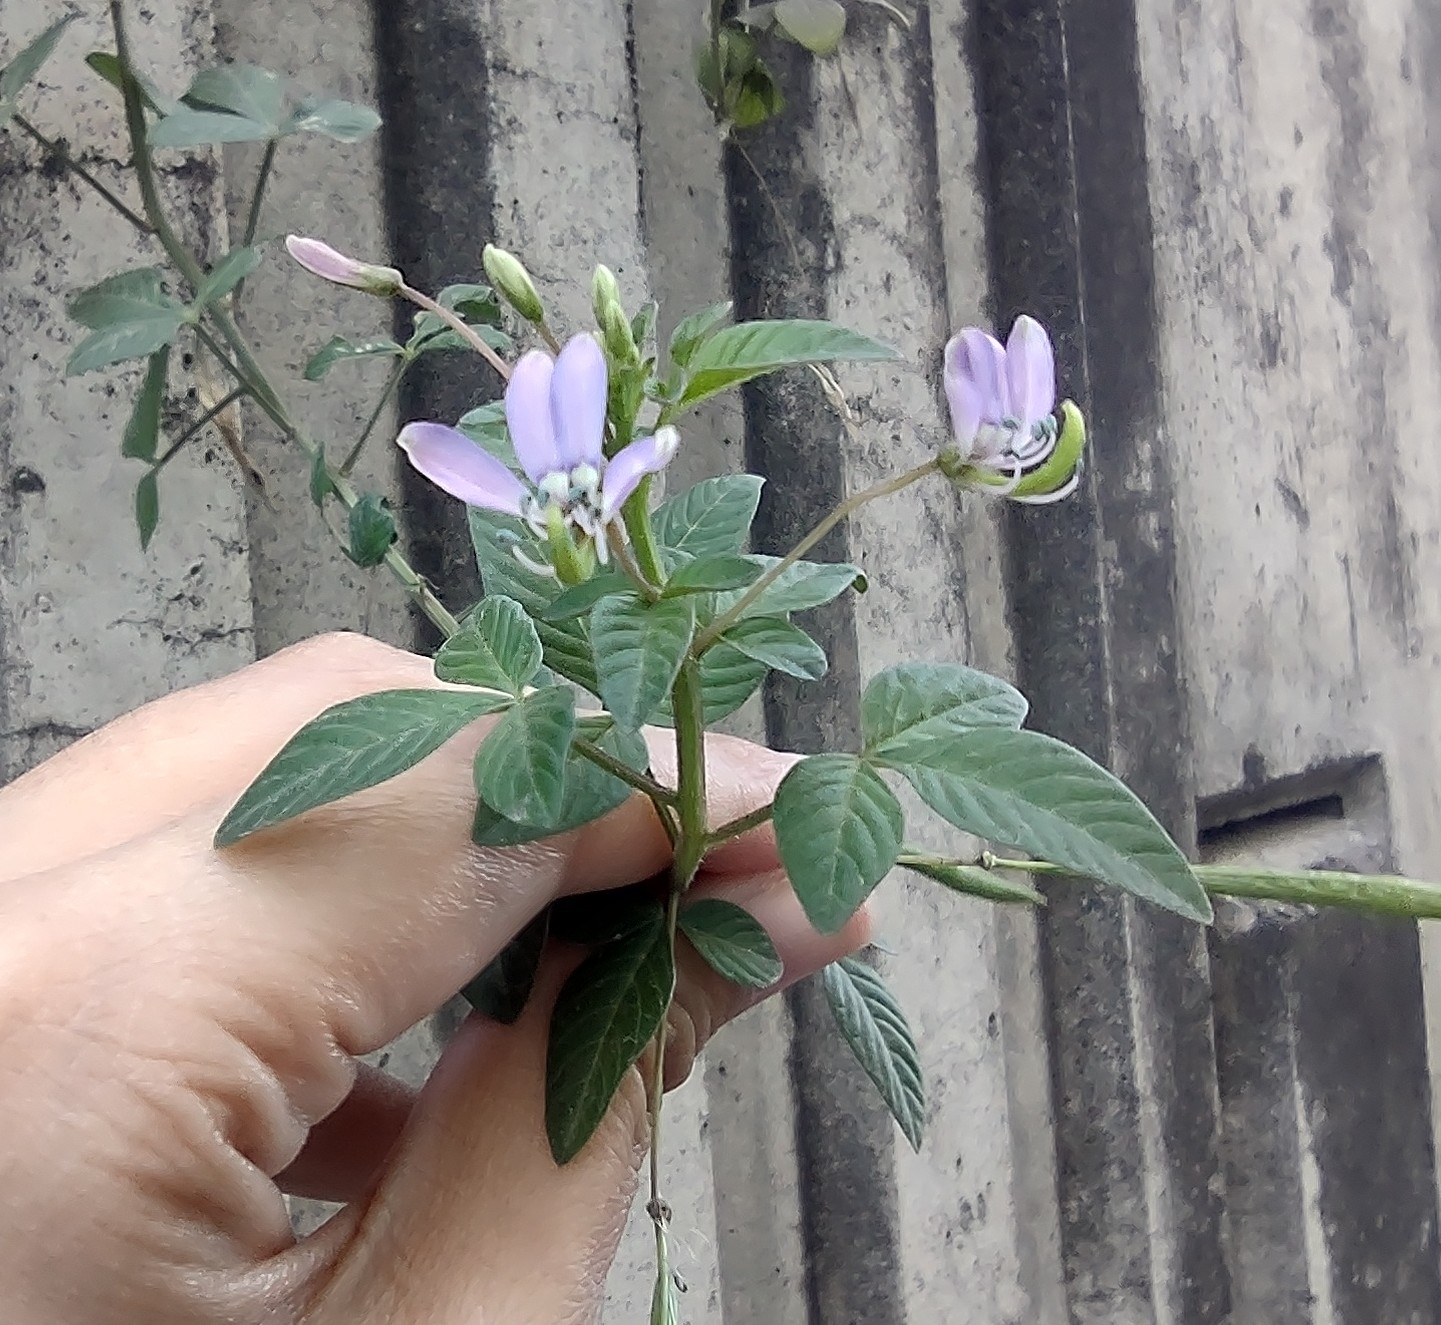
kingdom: Plantae
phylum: Tracheophyta
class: Magnoliopsida
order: Brassicales
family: Cleomaceae
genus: Sieruela
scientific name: Sieruela rutidosperma
